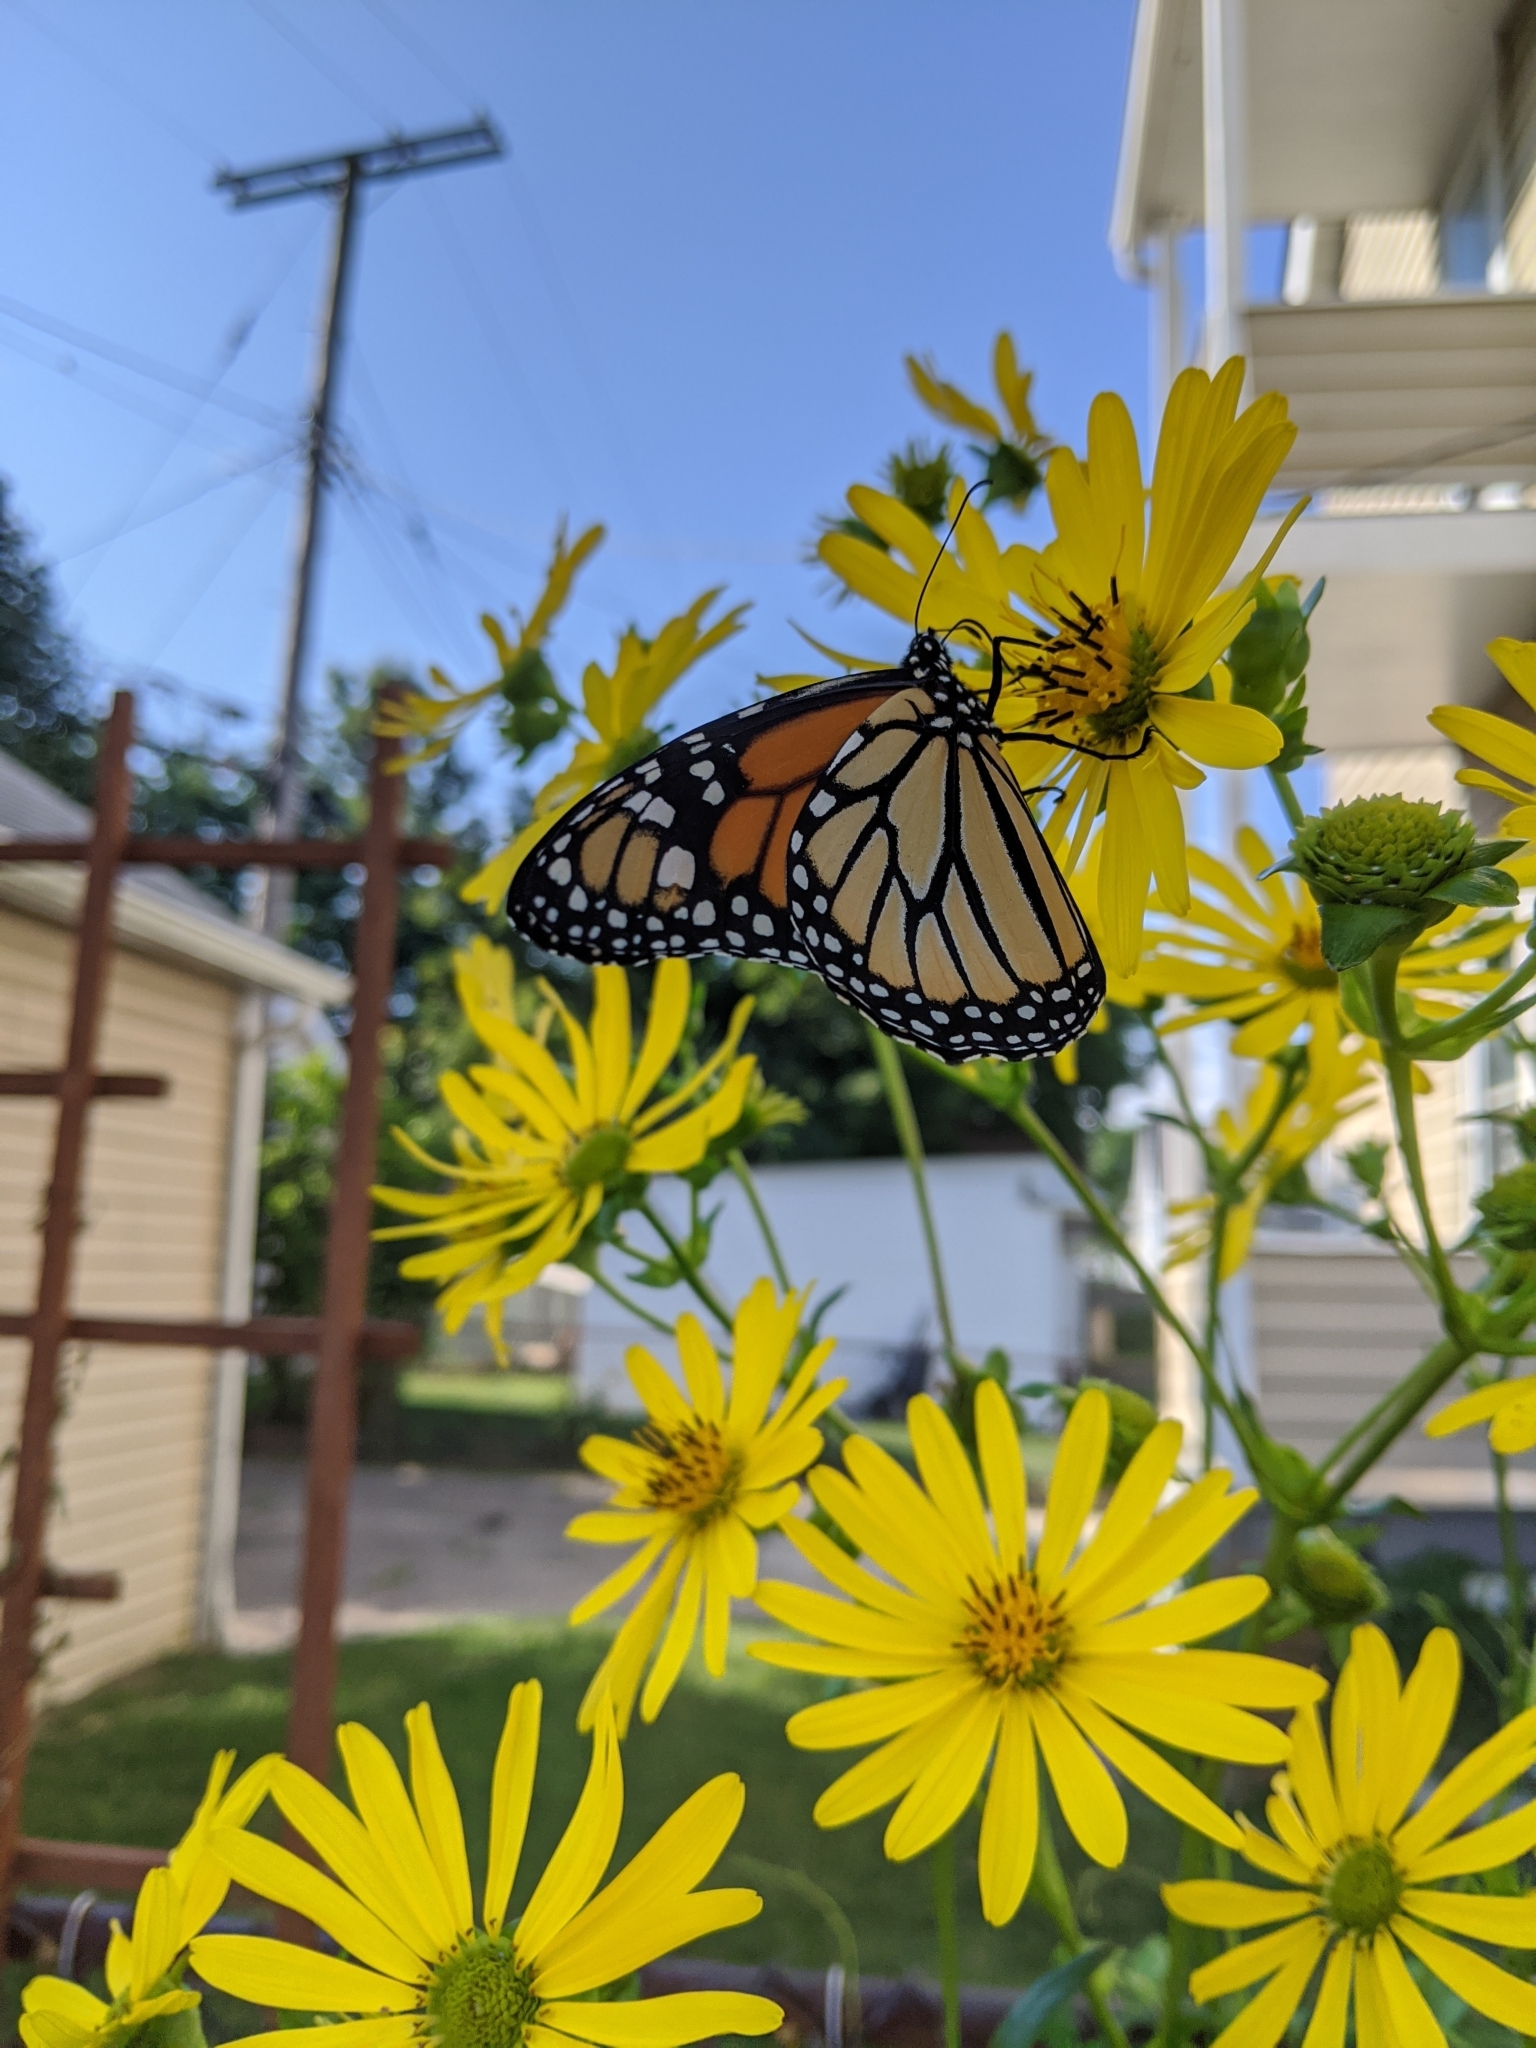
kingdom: Animalia
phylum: Arthropoda
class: Insecta
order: Lepidoptera
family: Nymphalidae
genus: Danaus
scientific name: Danaus plexippus
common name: Monarch
